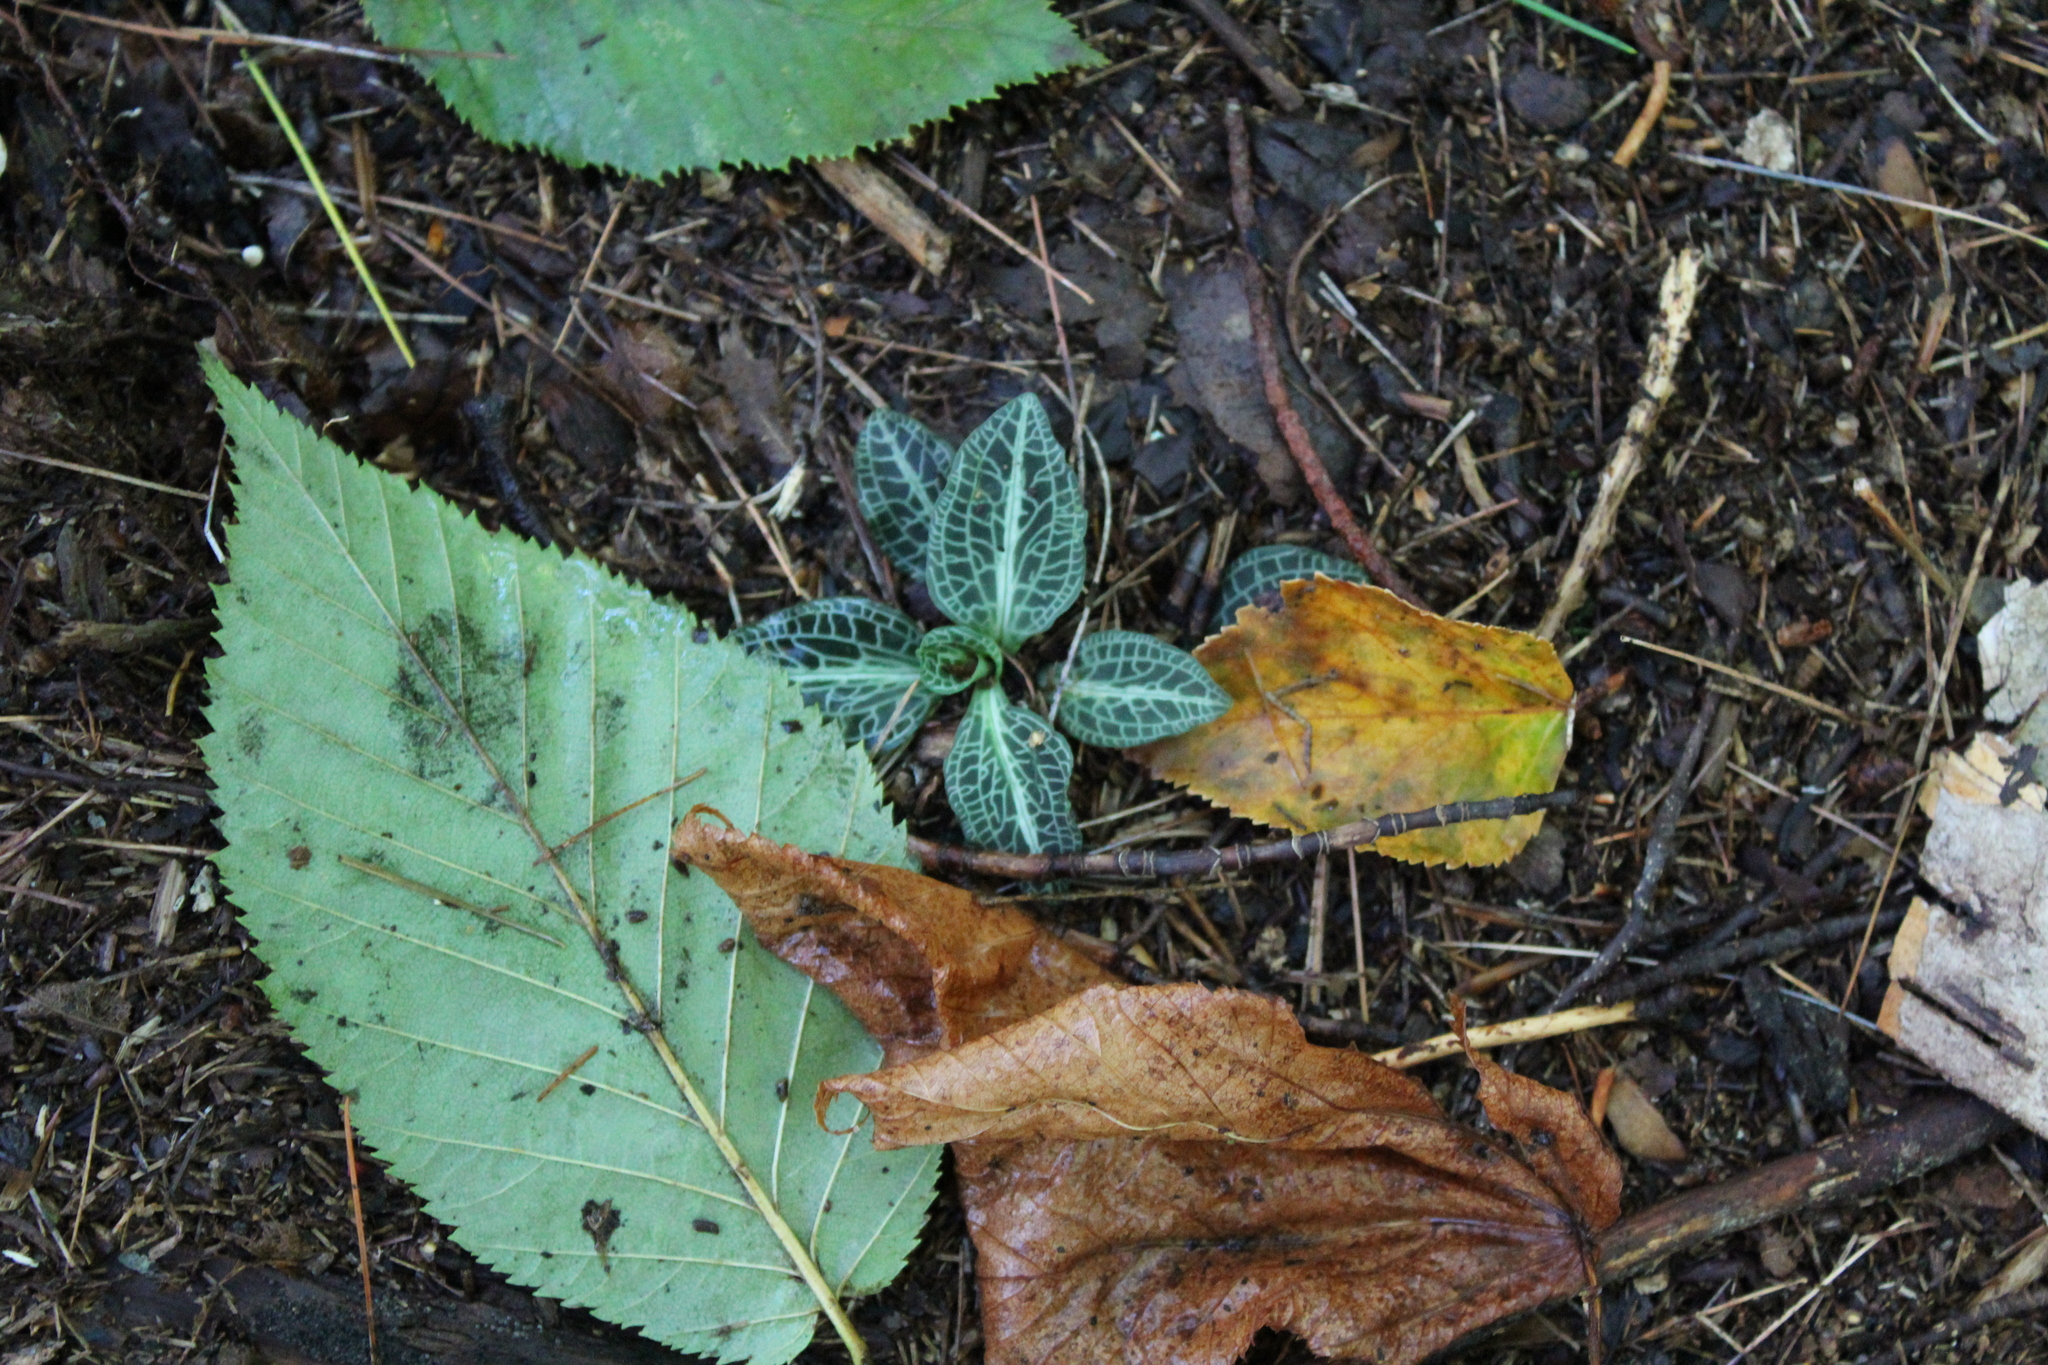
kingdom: Plantae
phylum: Tracheophyta
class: Liliopsida
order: Asparagales
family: Orchidaceae
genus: Goodyera
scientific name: Goodyera pubescens
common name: Downy rattlesnake-plantain
